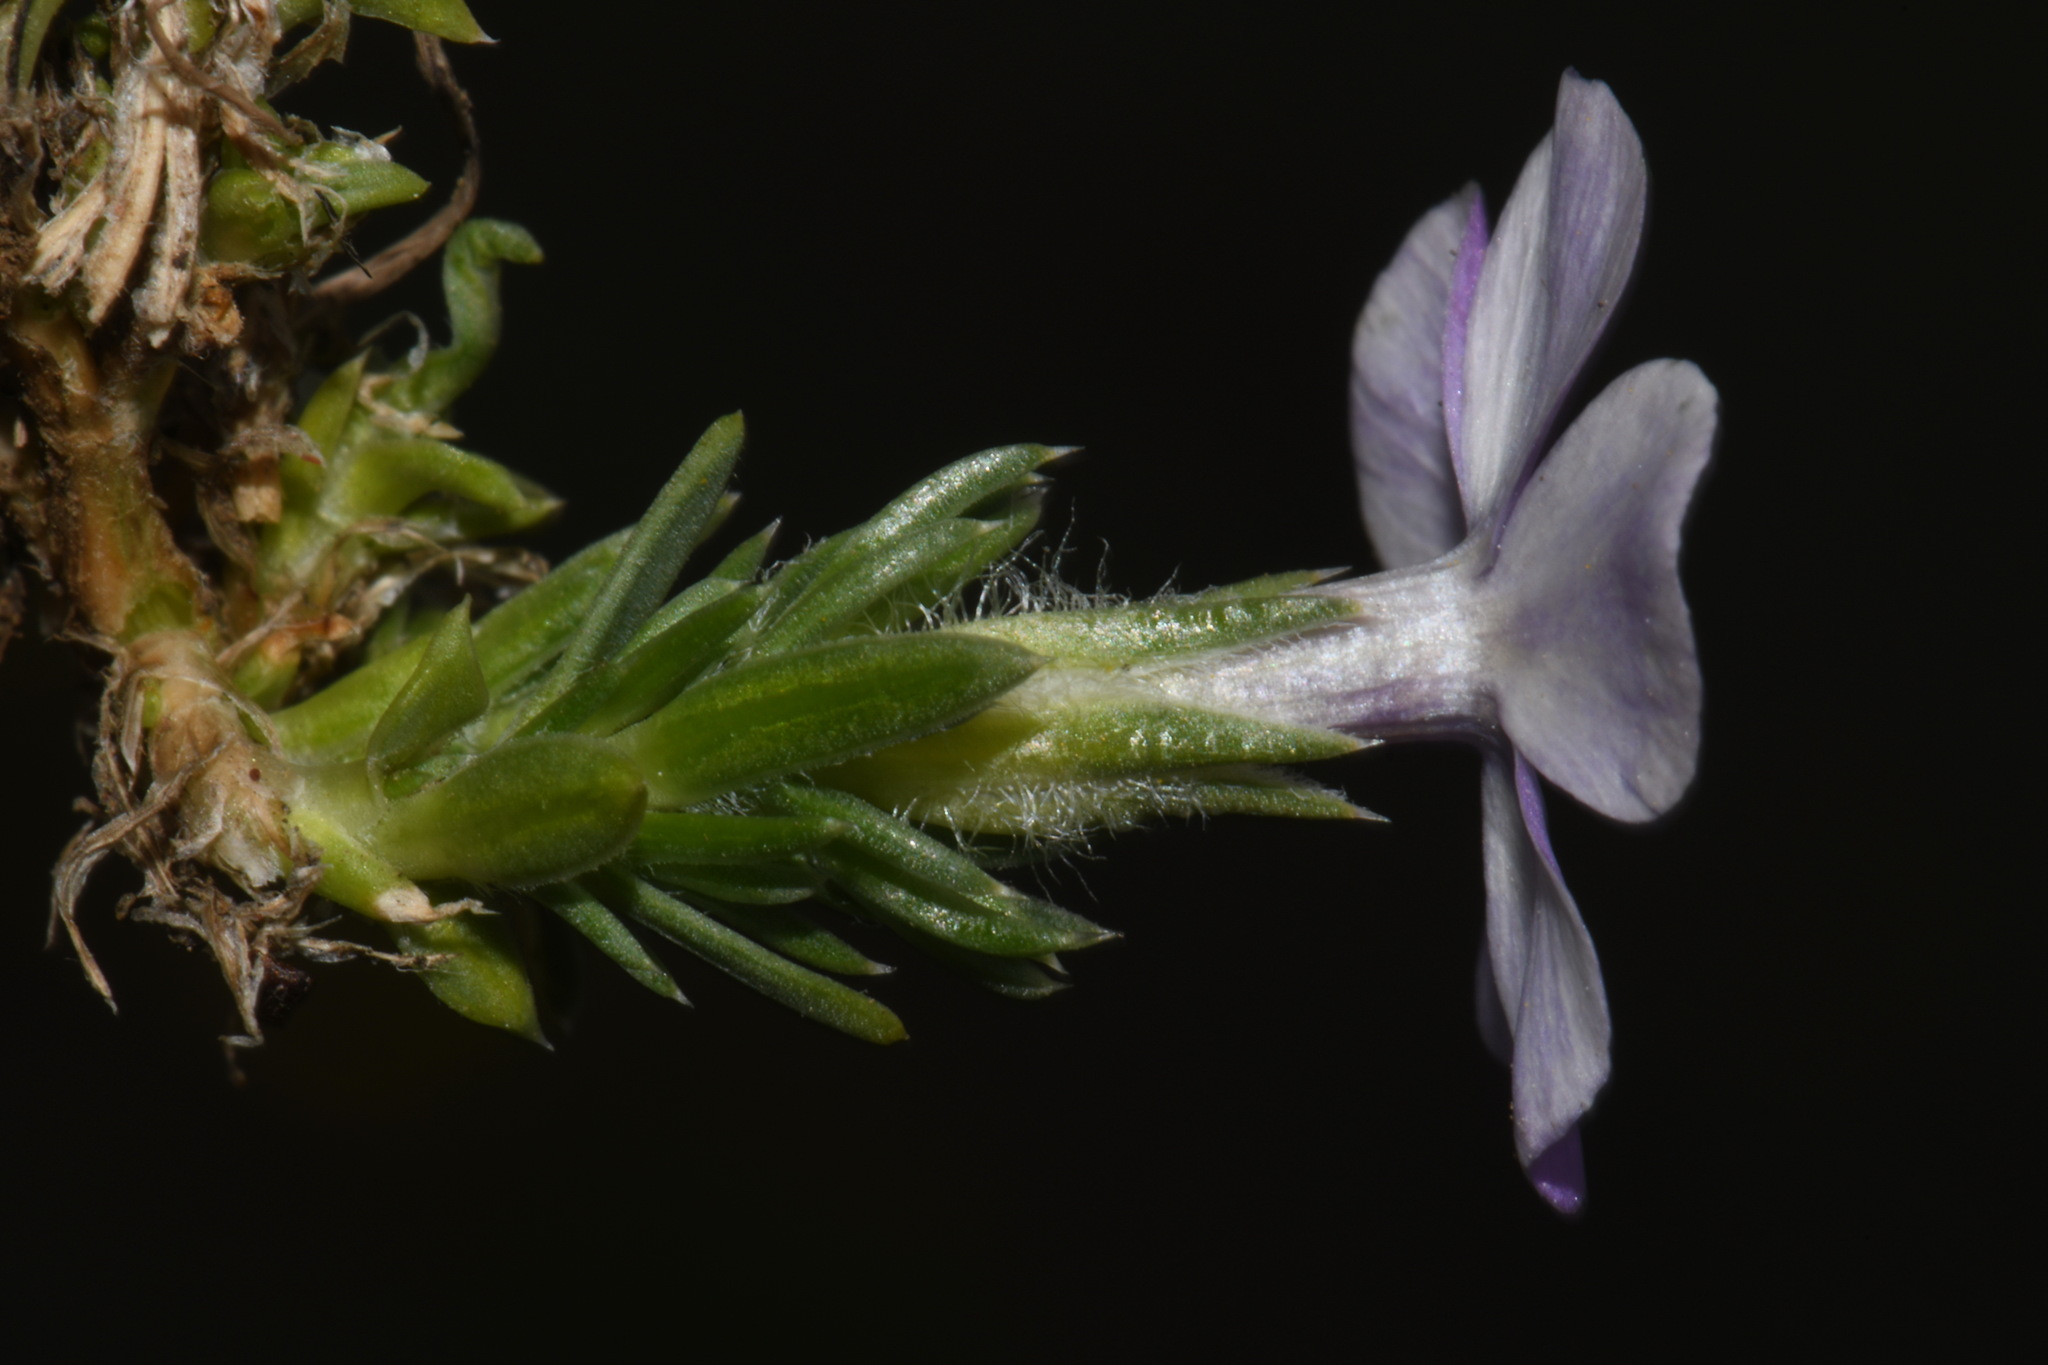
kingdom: Plantae
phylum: Tracheophyta
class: Magnoliopsida
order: Ericales
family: Polemoniaceae
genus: Phlox
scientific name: Phlox diffusa
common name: Mat phlox
